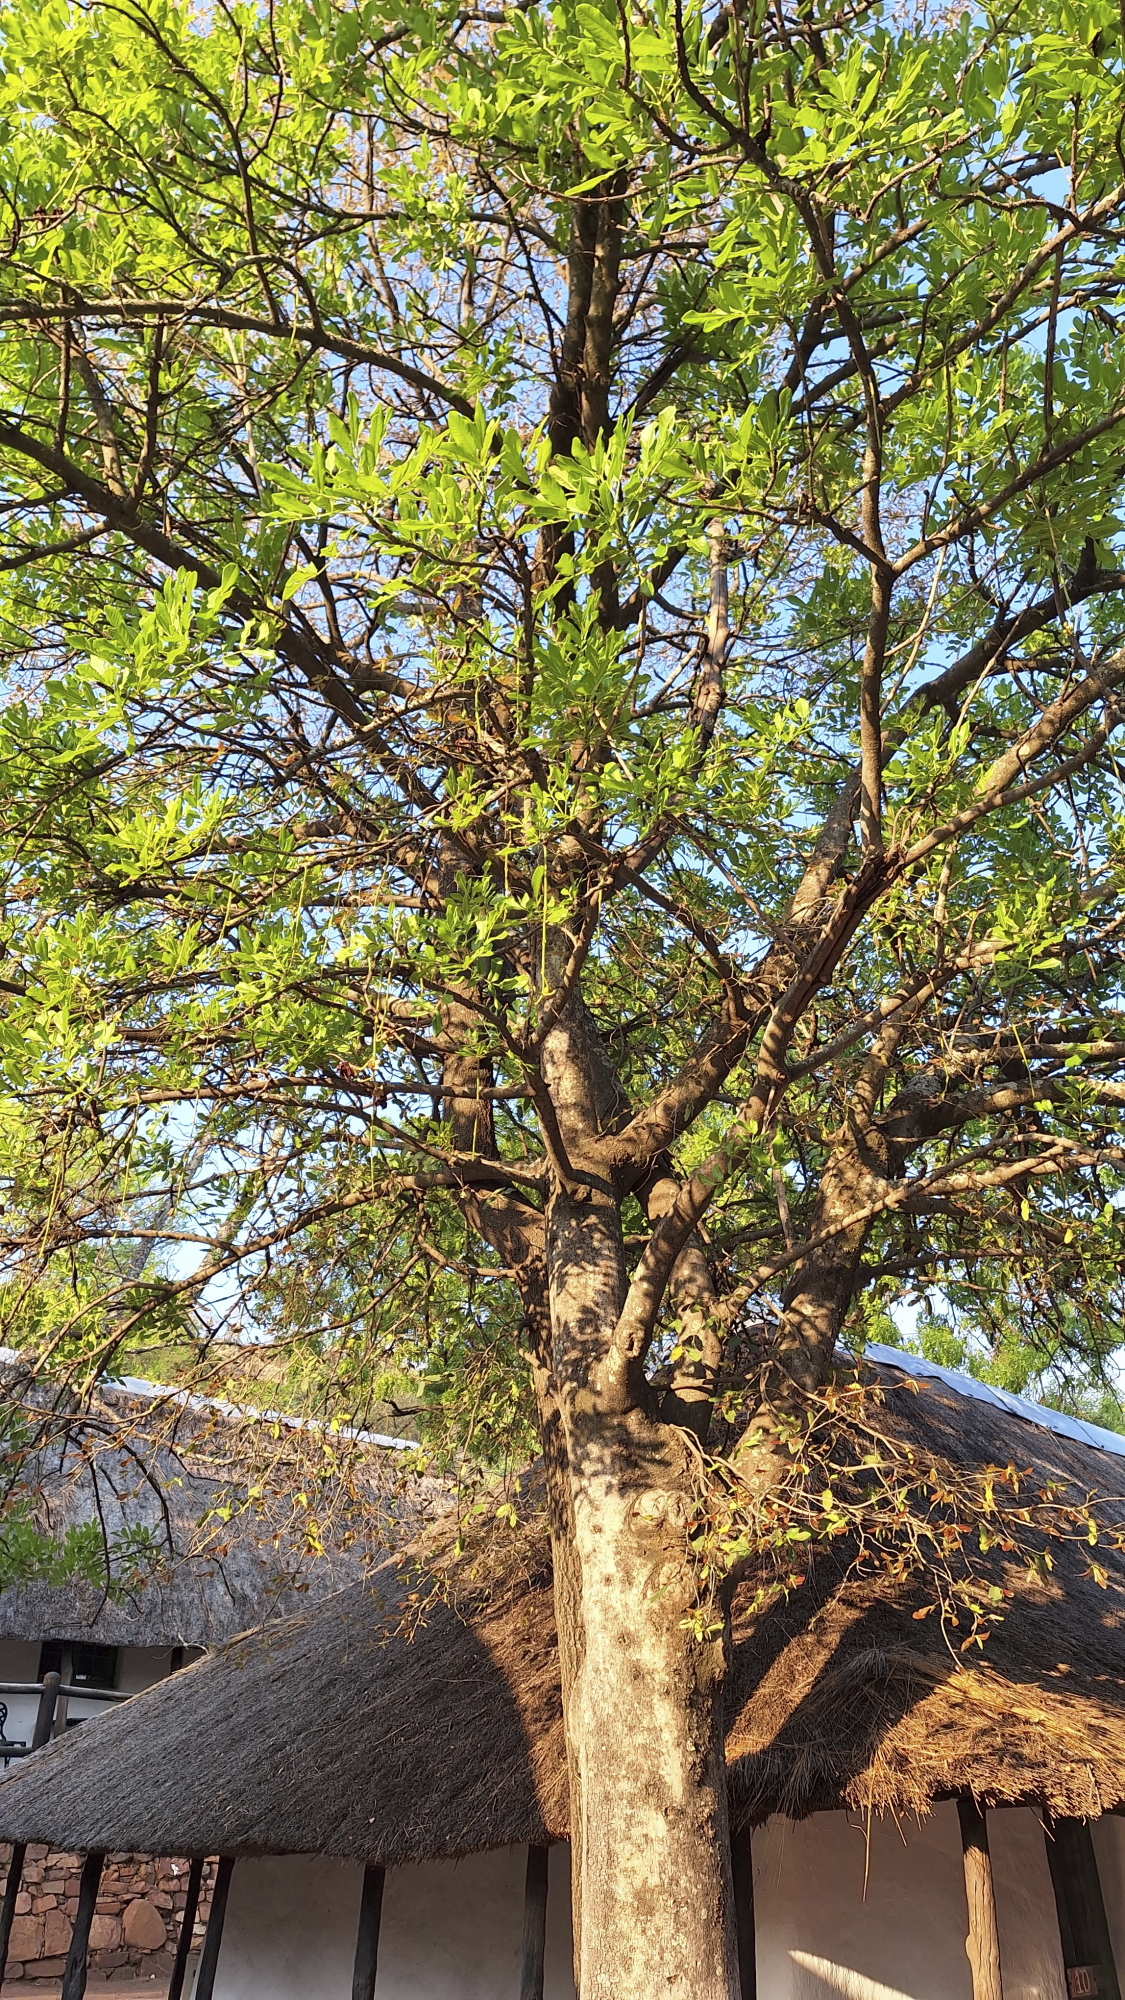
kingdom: Plantae
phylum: Tracheophyta
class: Magnoliopsida
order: Lamiales
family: Bignoniaceae
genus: Kigelia
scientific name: Kigelia africana
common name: Sausage tree
